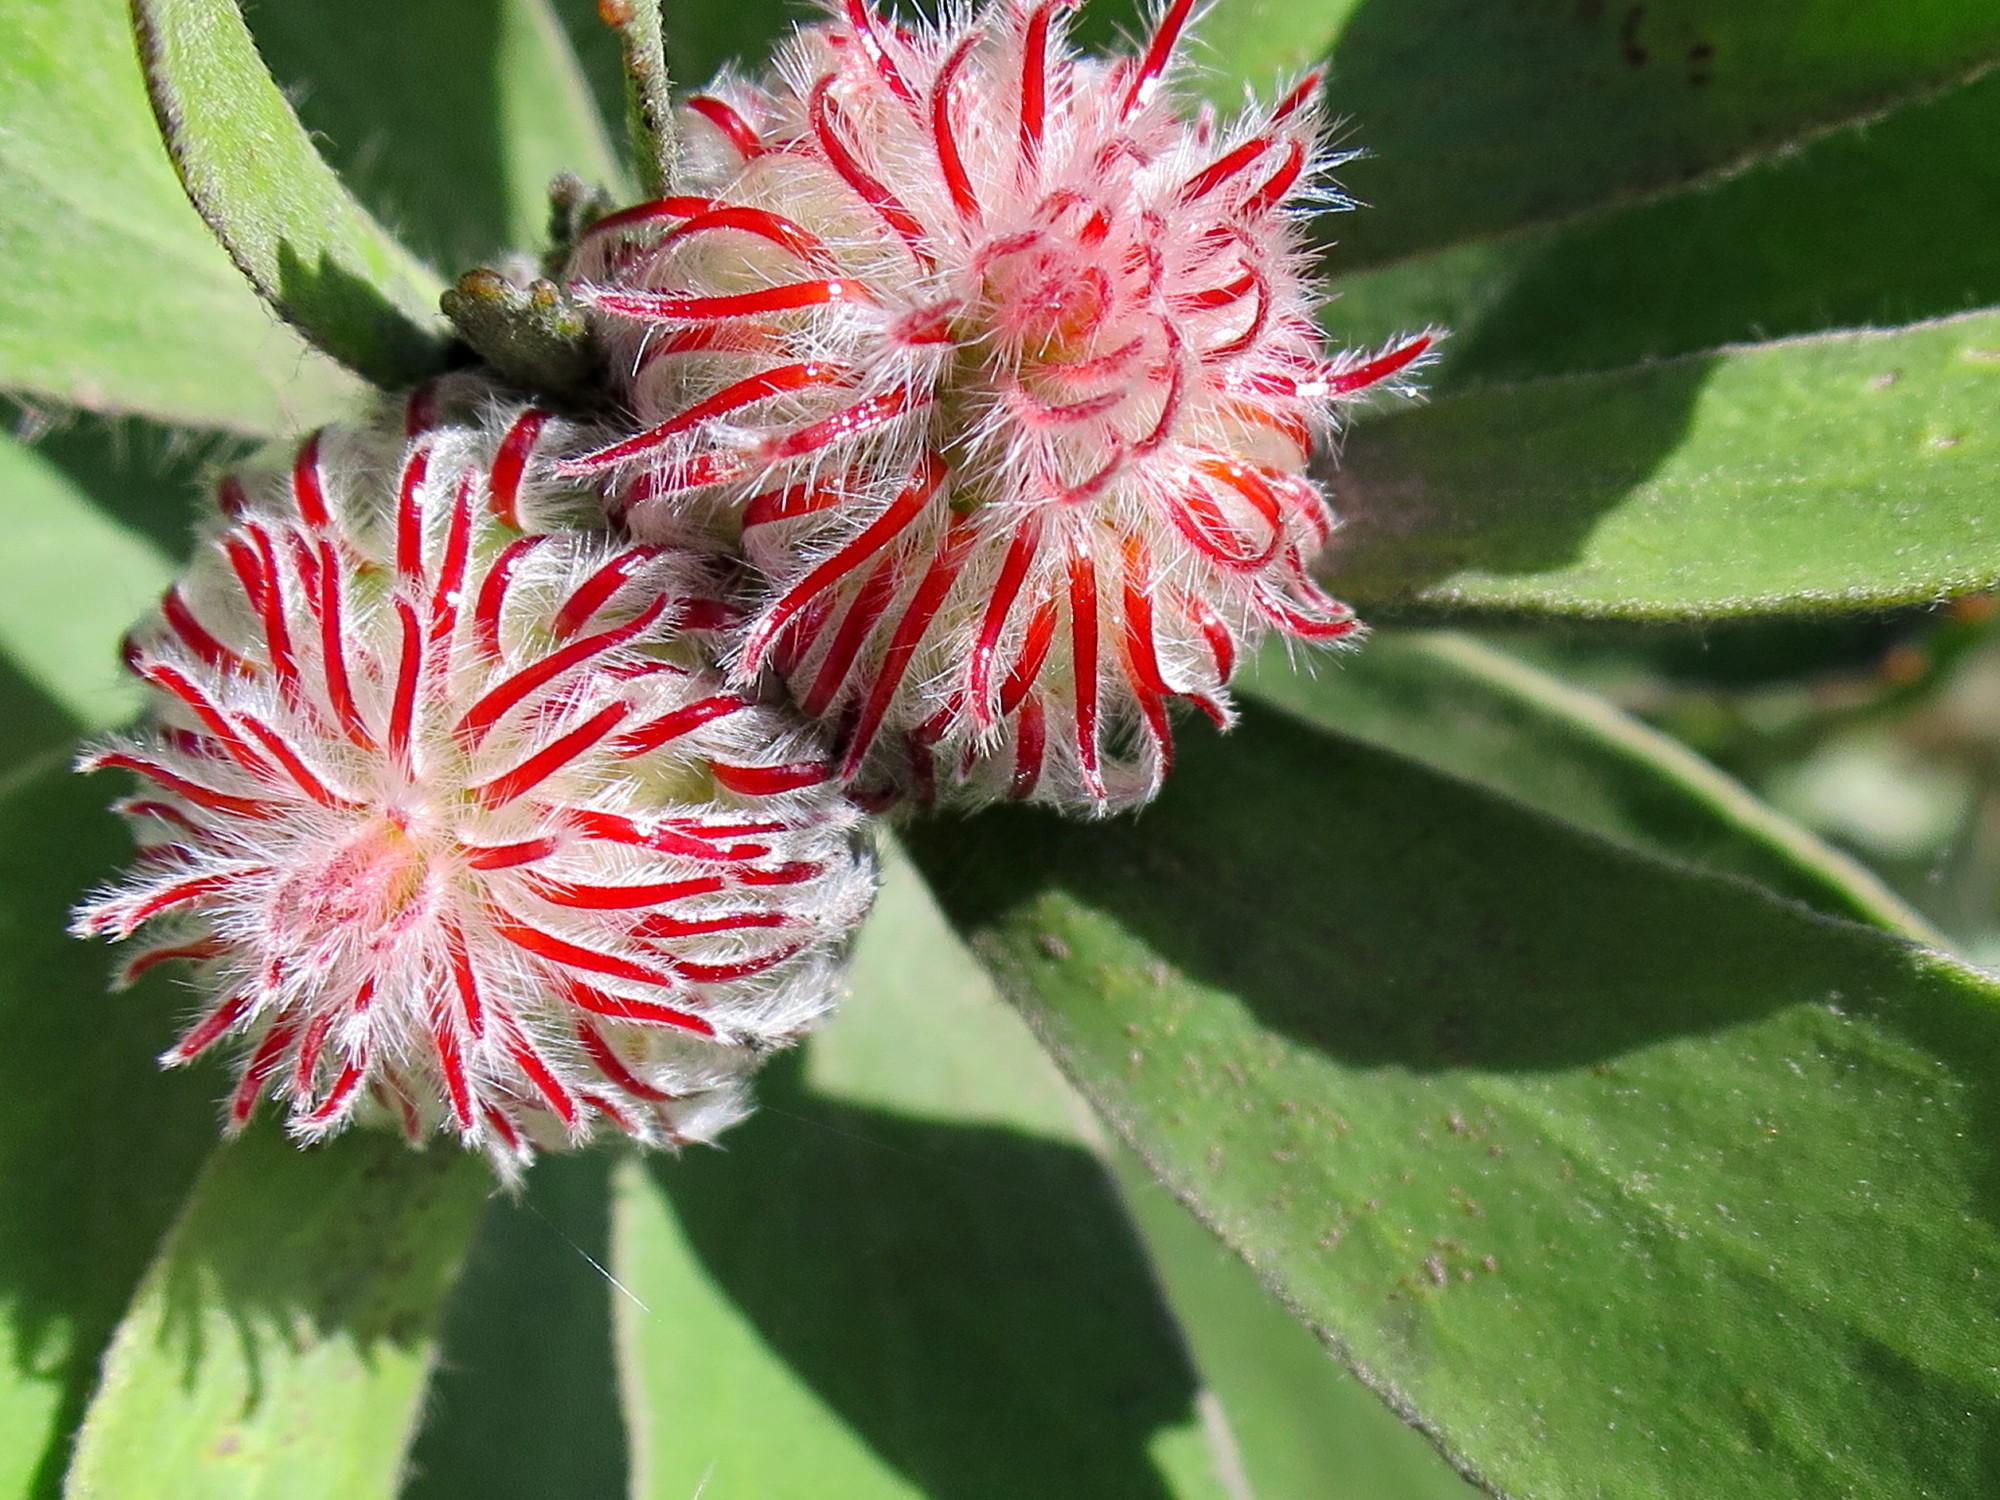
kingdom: Plantae
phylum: Tracheophyta
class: Magnoliopsida
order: Proteales
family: Proteaceae
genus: Leucospermum
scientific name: Leucospermum pluridens
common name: Robinson pincushion
